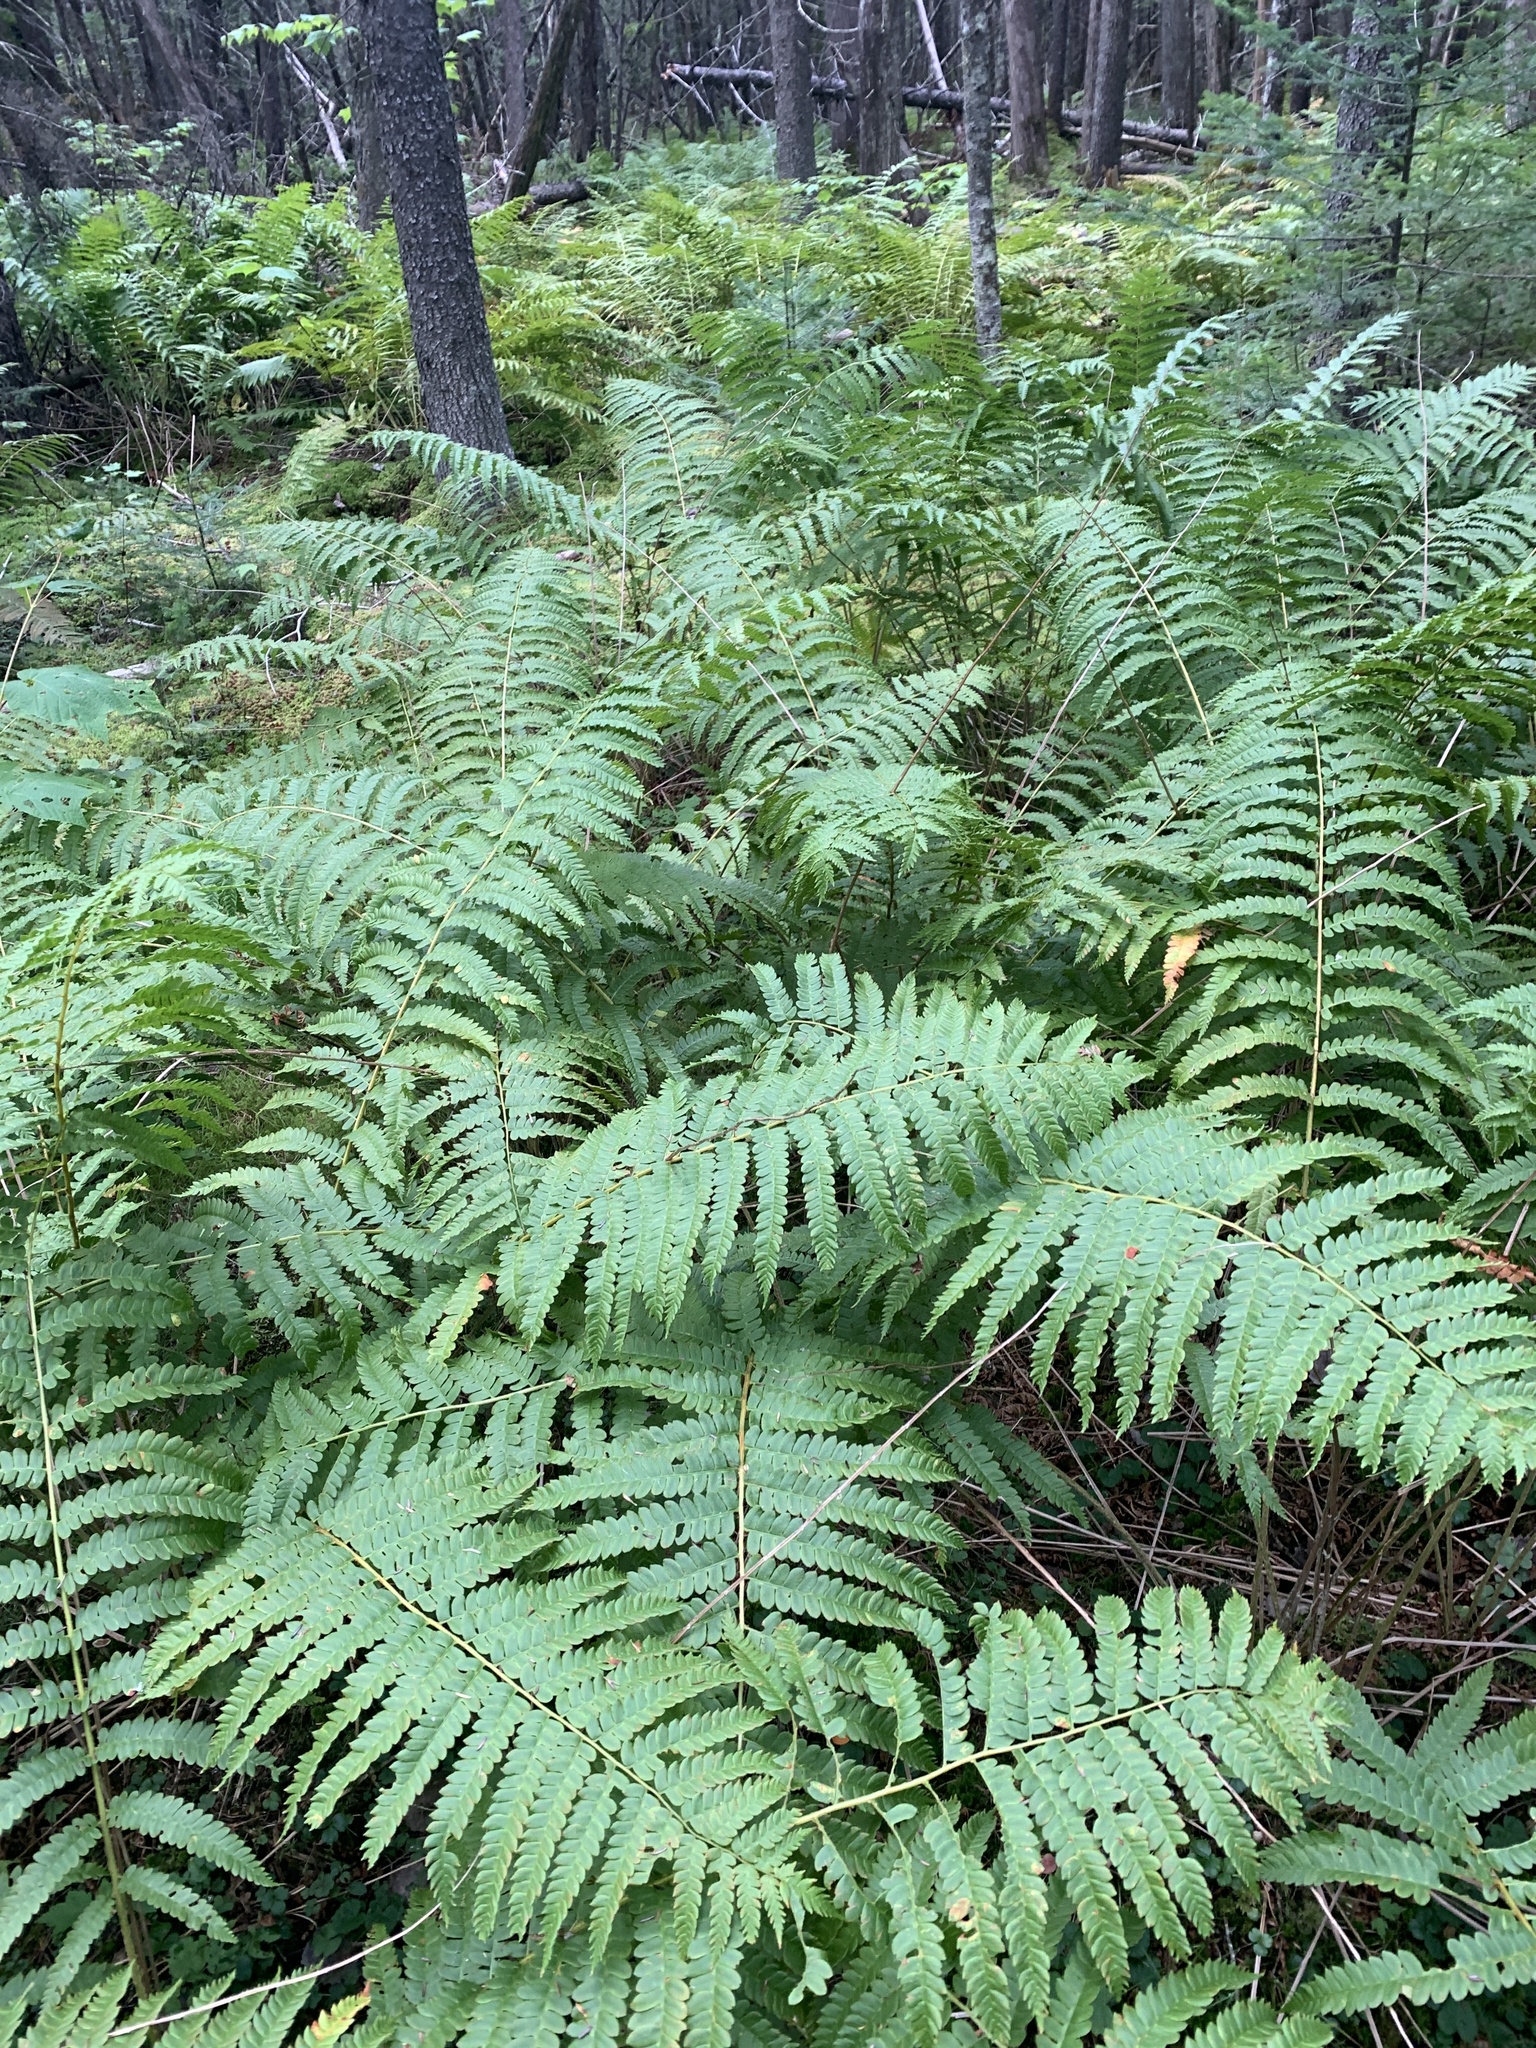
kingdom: Plantae
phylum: Tracheophyta
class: Polypodiopsida
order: Osmundales
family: Osmundaceae
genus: Osmundastrum
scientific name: Osmundastrum cinnamomeum
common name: Cinnamon fern
